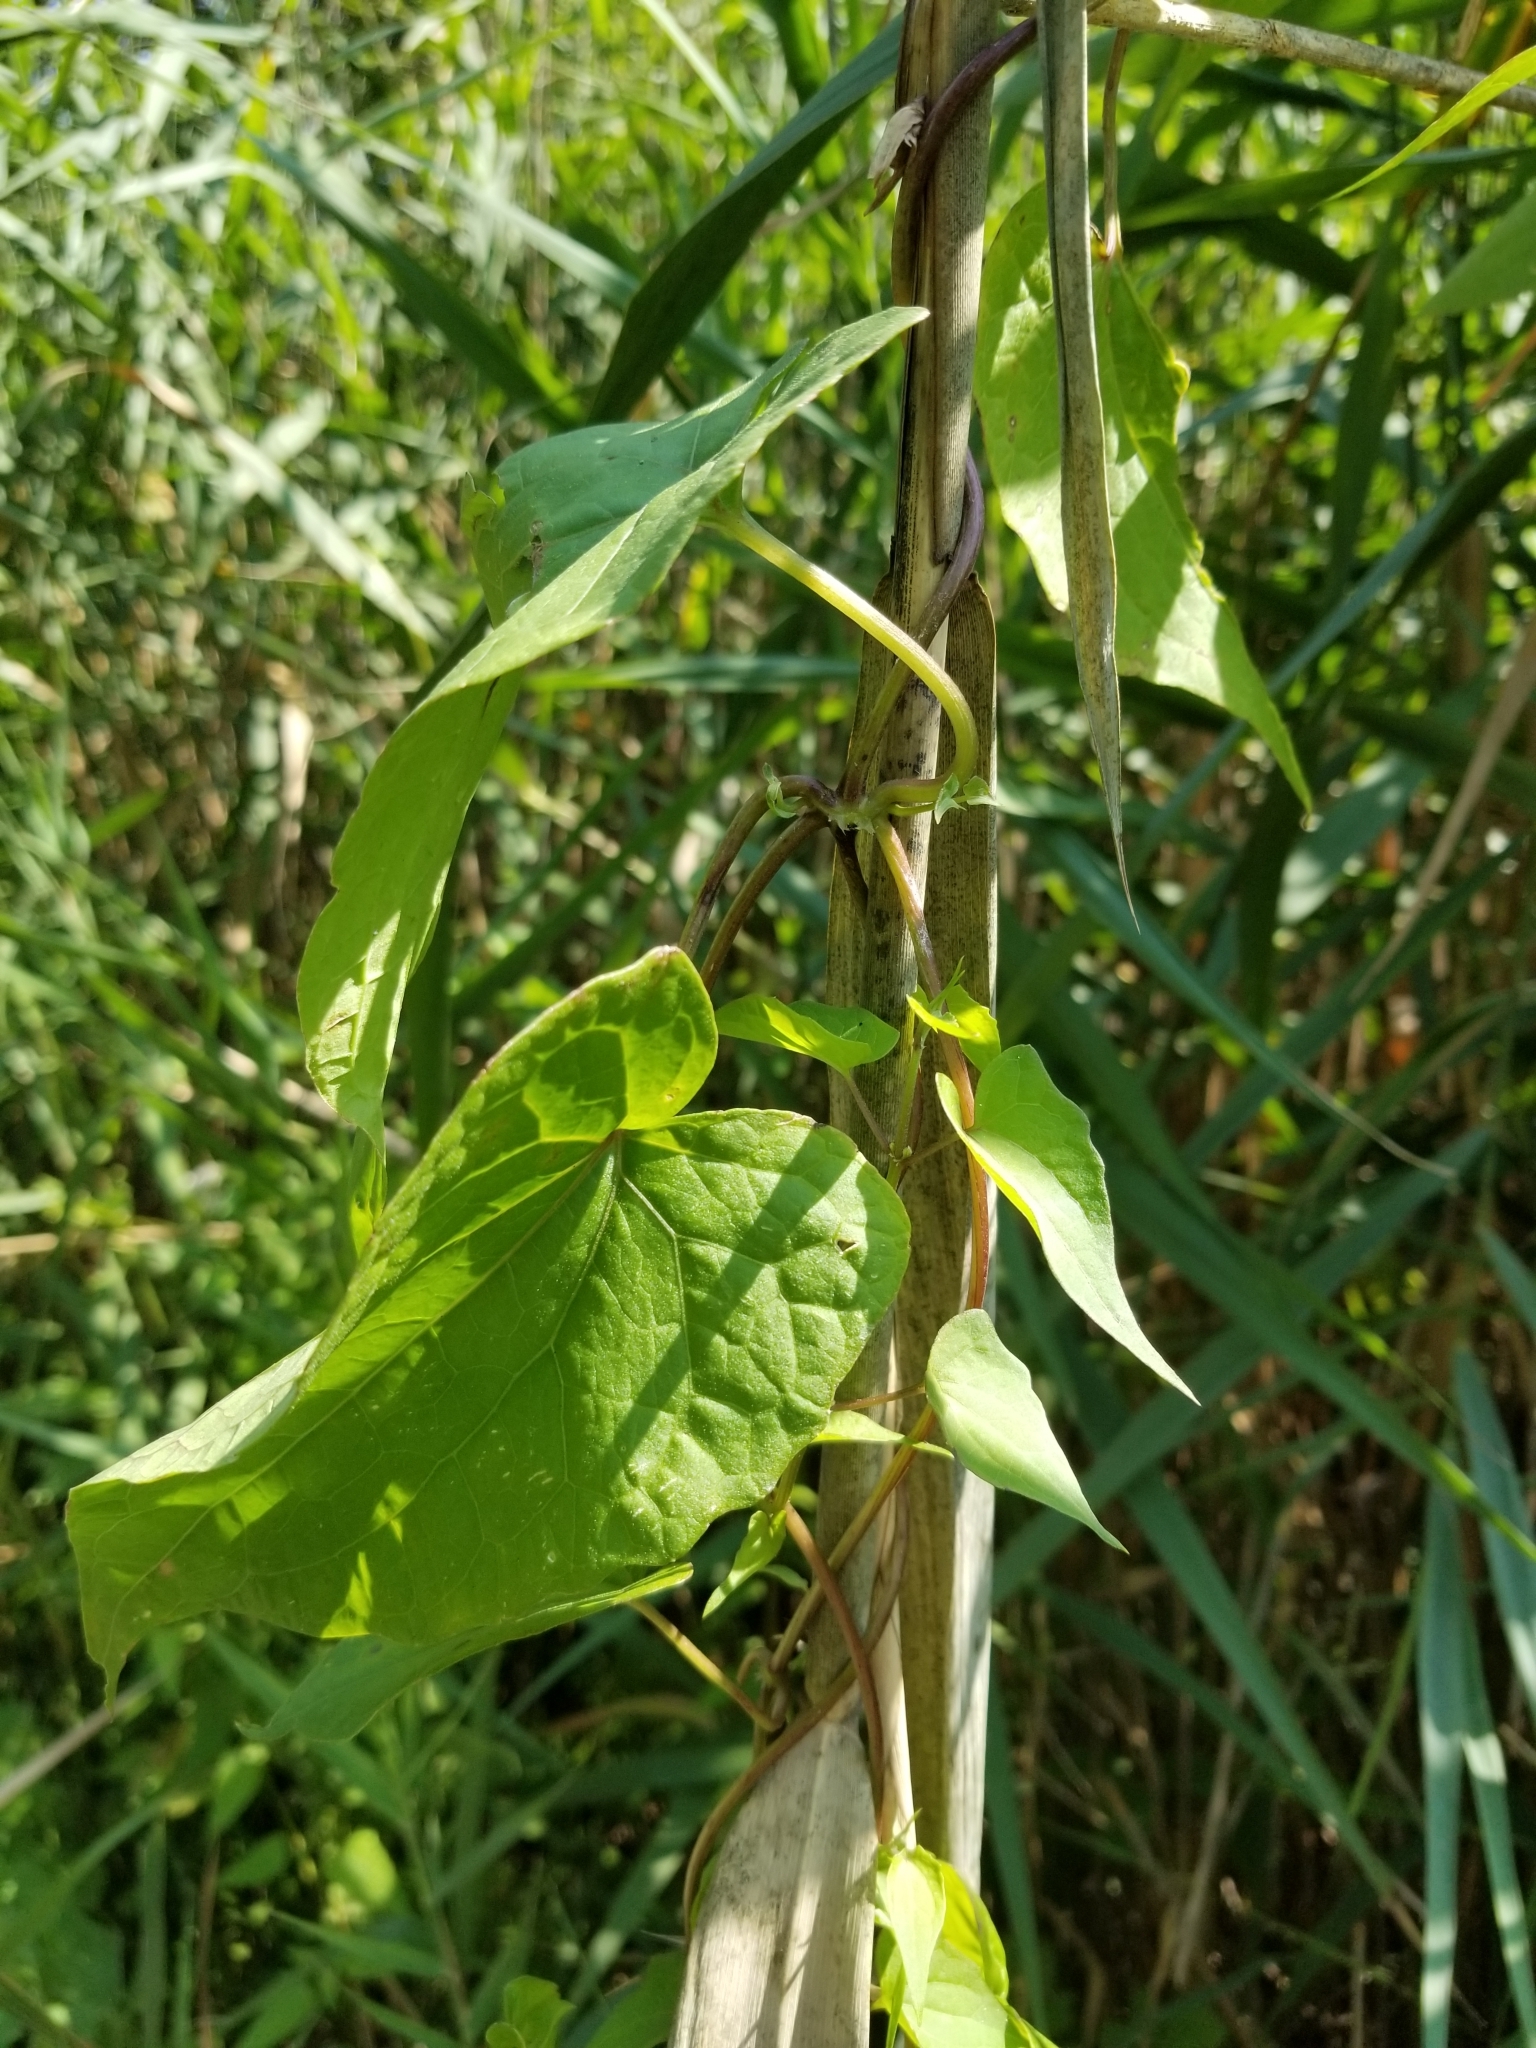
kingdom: Plantae
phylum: Tracheophyta
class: Magnoliopsida
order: Asterales
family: Asteraceae
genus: Mikania
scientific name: Mikania scandens
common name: Climbing hempvine
